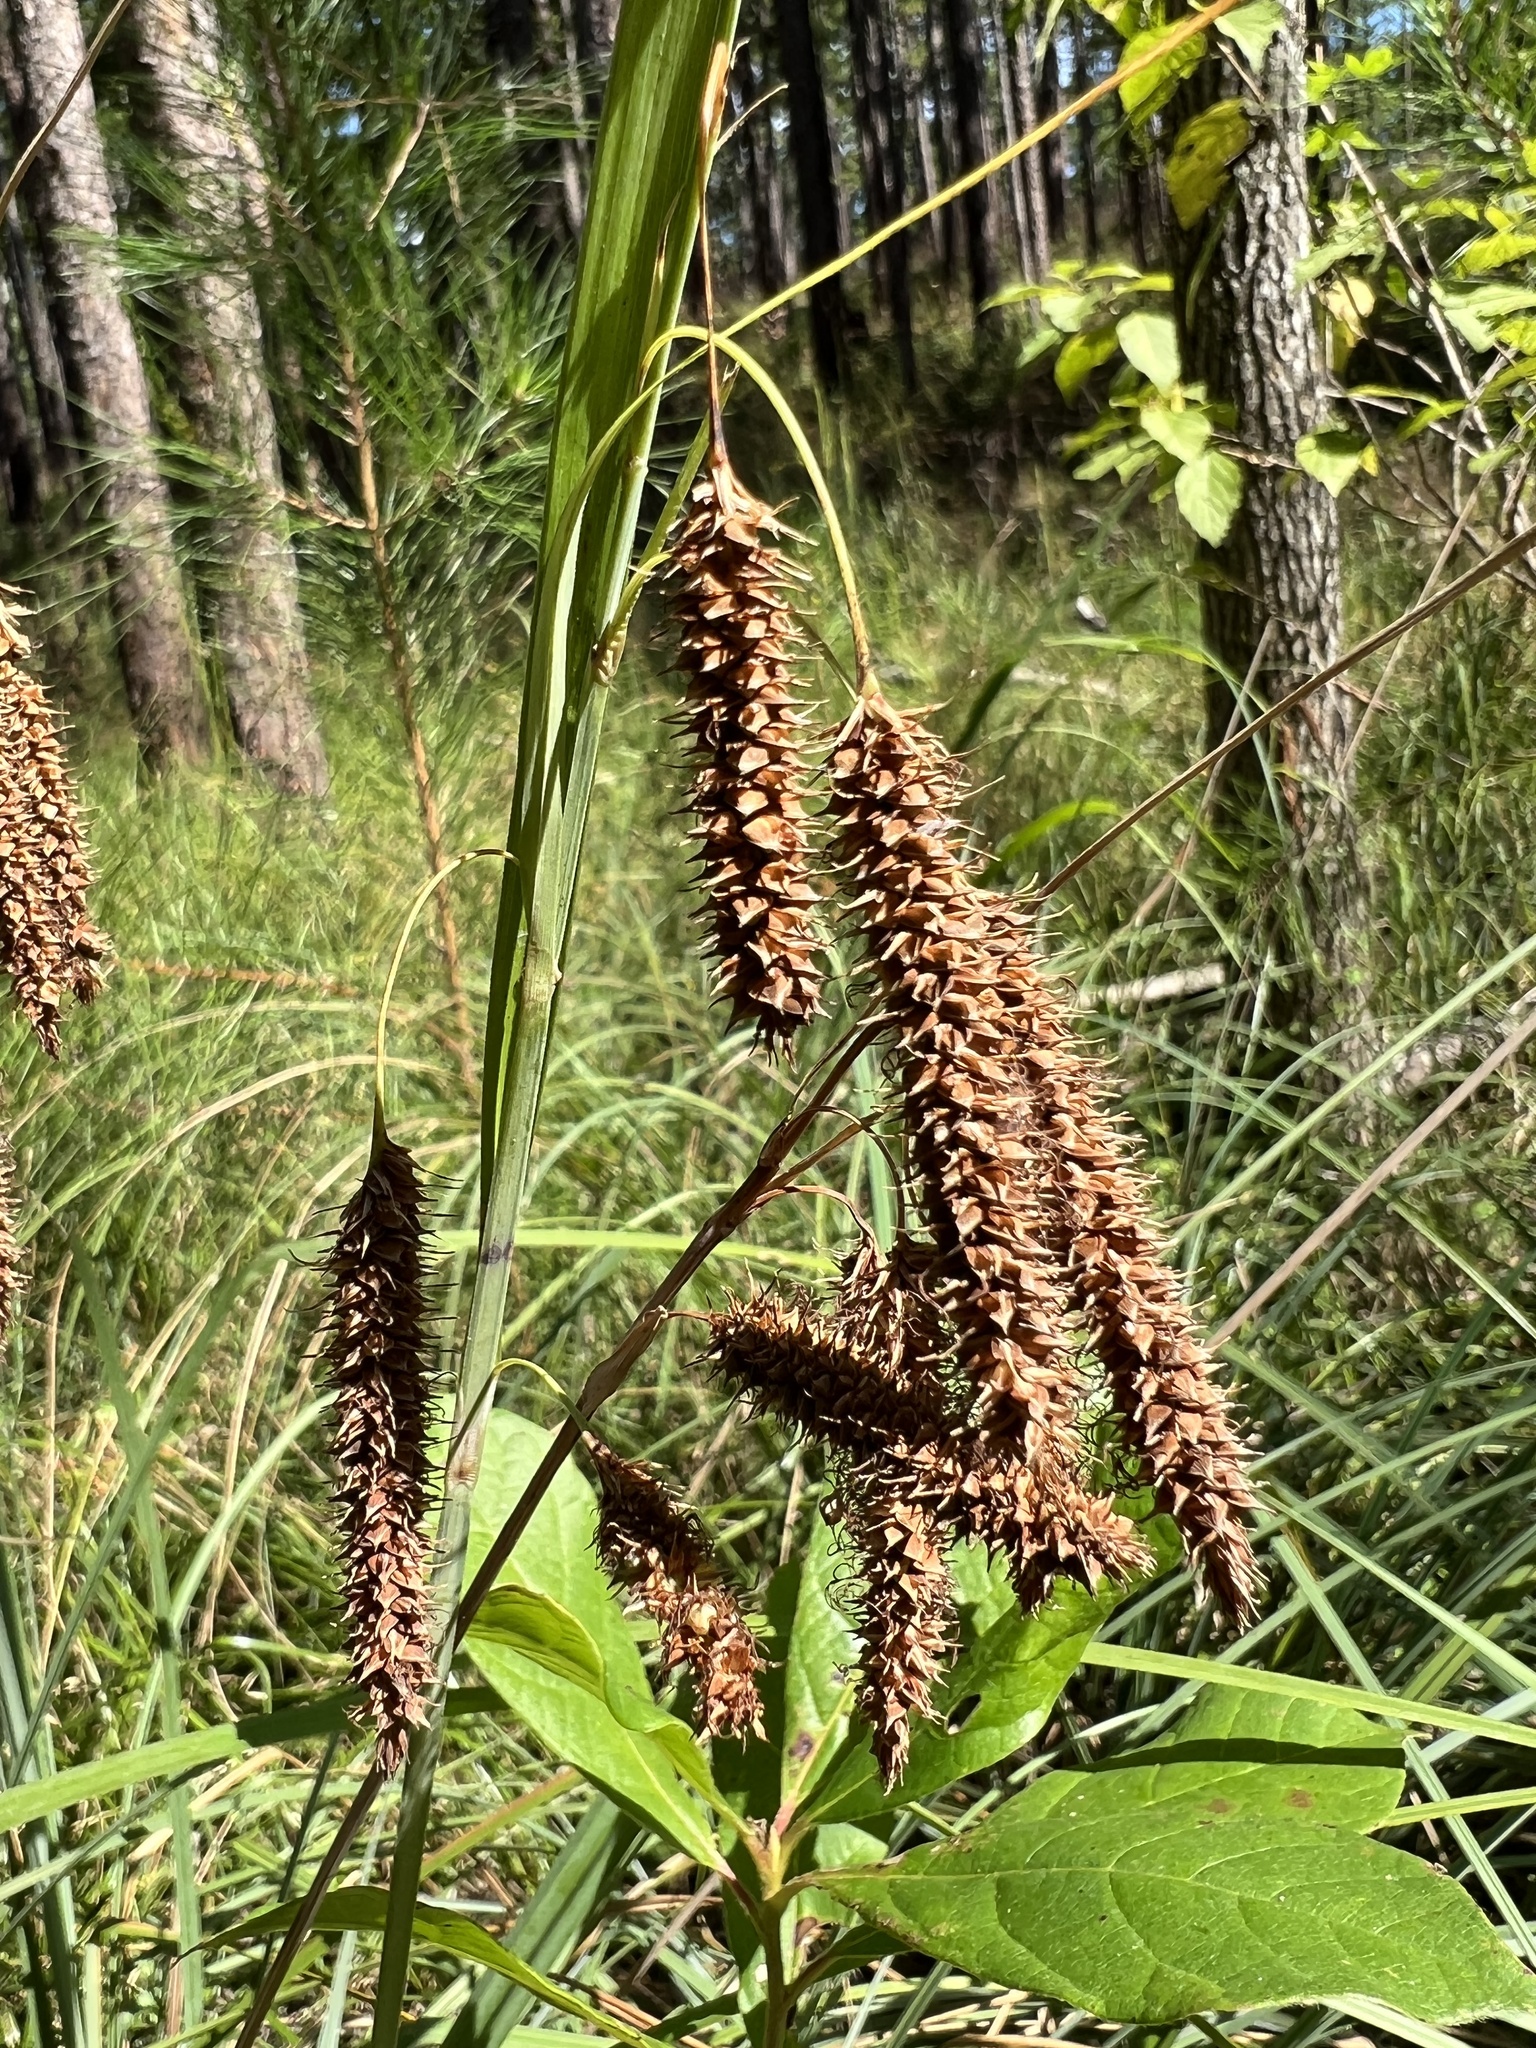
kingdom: Plantae
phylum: Tracheophyta
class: Liliopsida
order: Poales
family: Cyperaceae
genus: Carex
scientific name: Carex glaucescens
